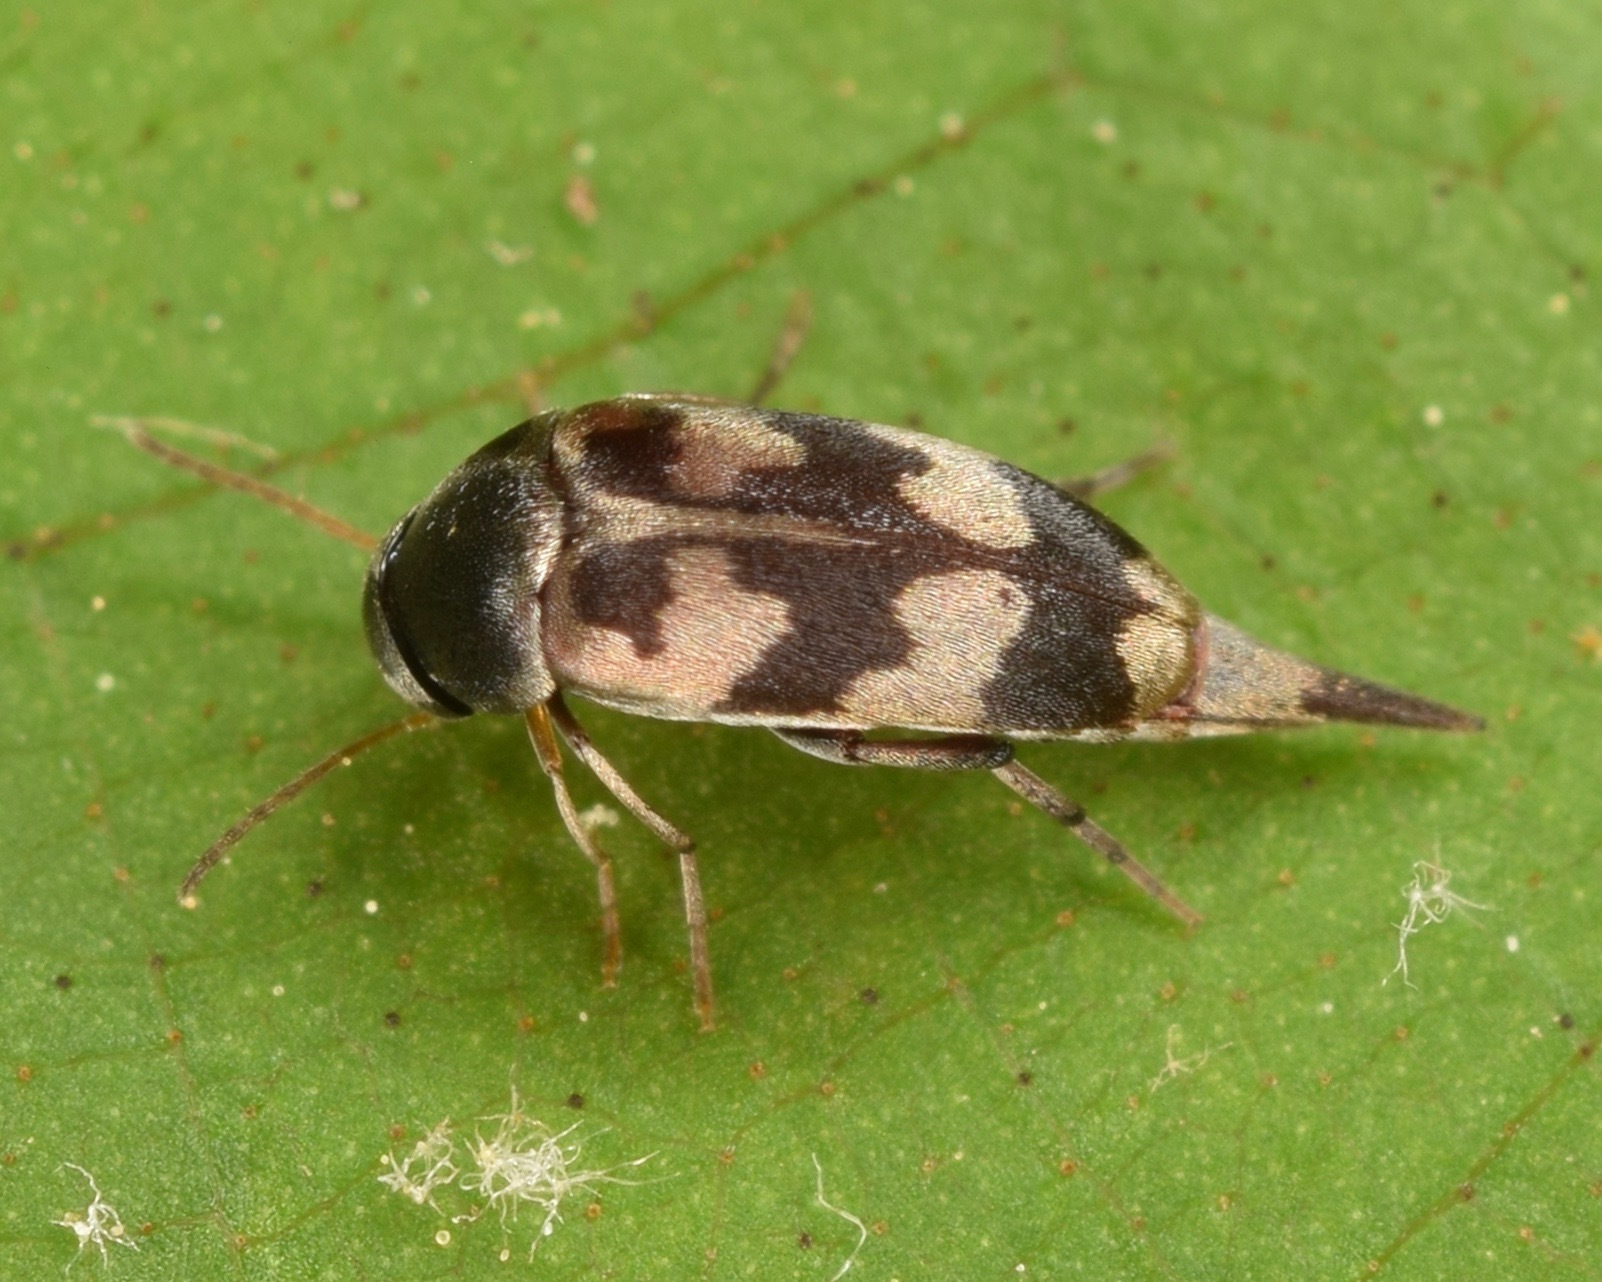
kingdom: Animalia
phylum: Arthropoda
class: Insecta
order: Coleoptera
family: Mordellidae
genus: Falsomordellistena
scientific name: Falsomordellistena pubescens
